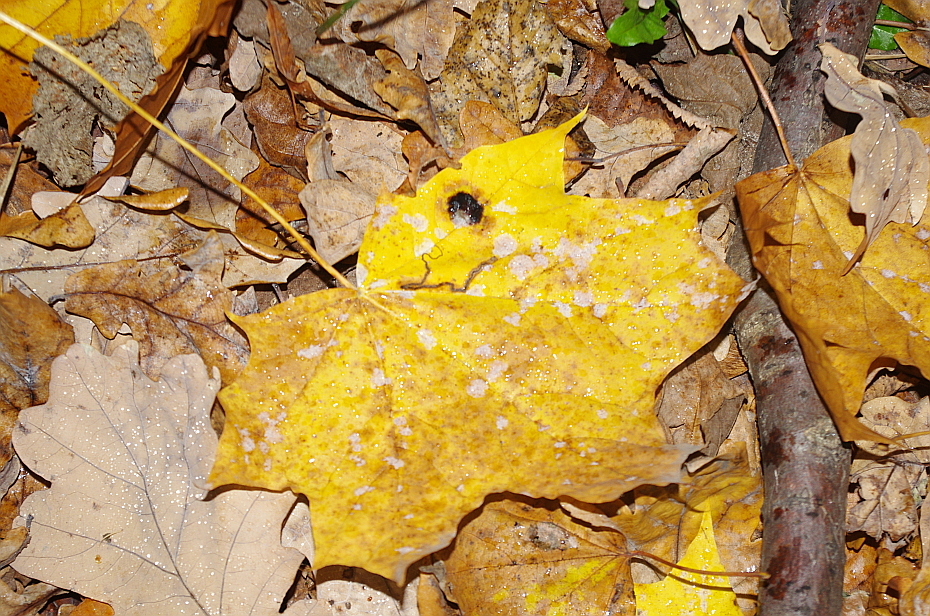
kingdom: Animalia
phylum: Arthropoda
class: Insecta
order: Lepidoptera
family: Nepticulidae
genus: Stigmella
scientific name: Stigmella aceris
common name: Scarce maple pigmy
